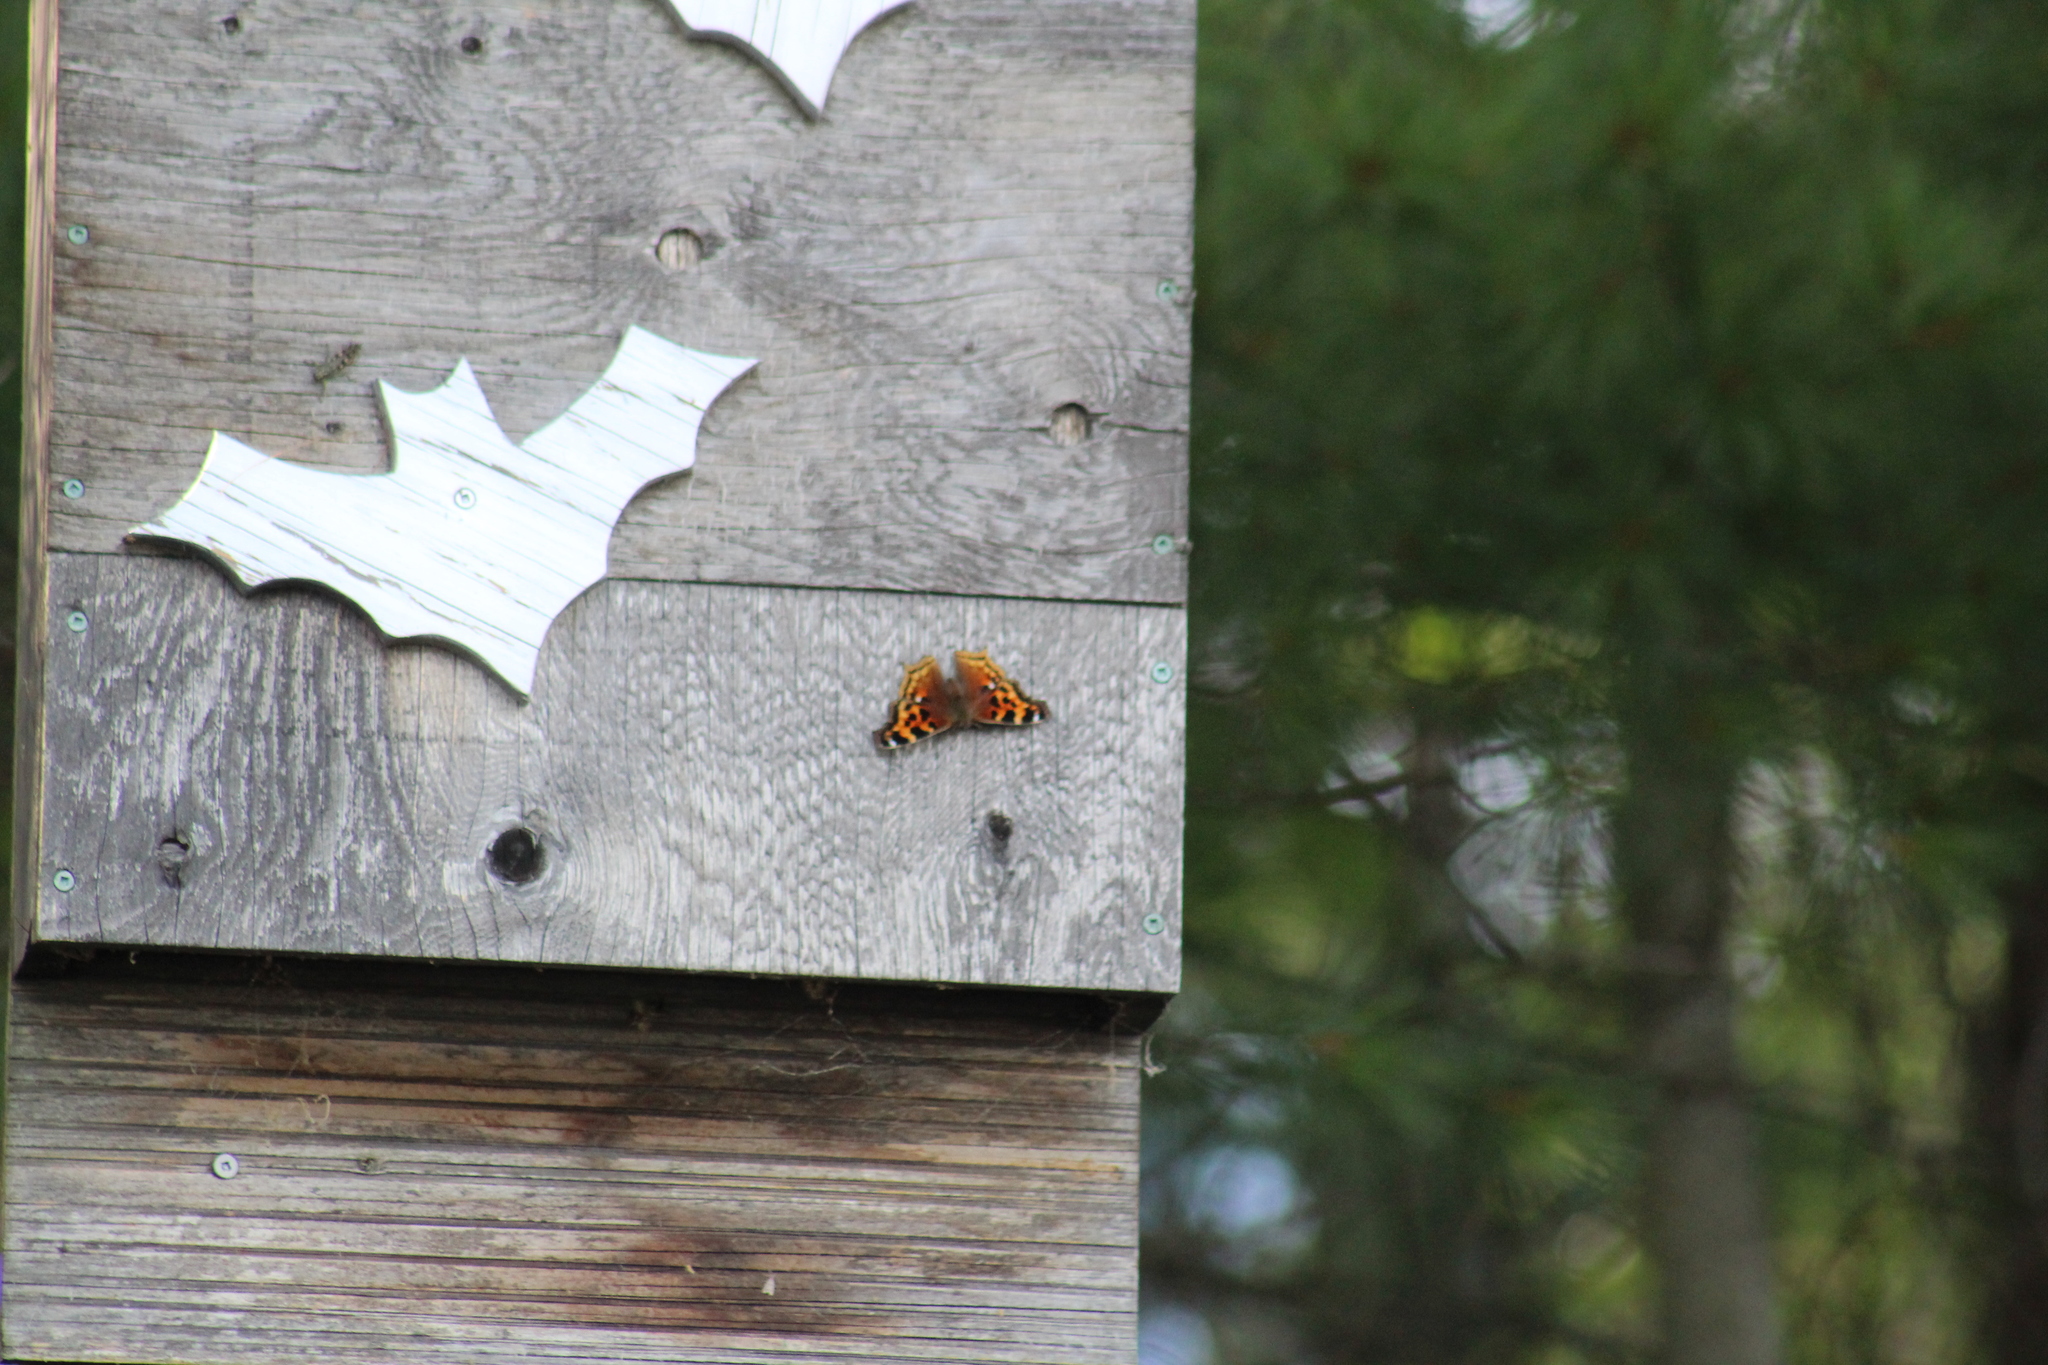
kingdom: Animalia
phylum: Arthropoda
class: Insecta
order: Lepidoptera
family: Nymphalidae
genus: Polygonia
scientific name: Polygonia vaualbum
